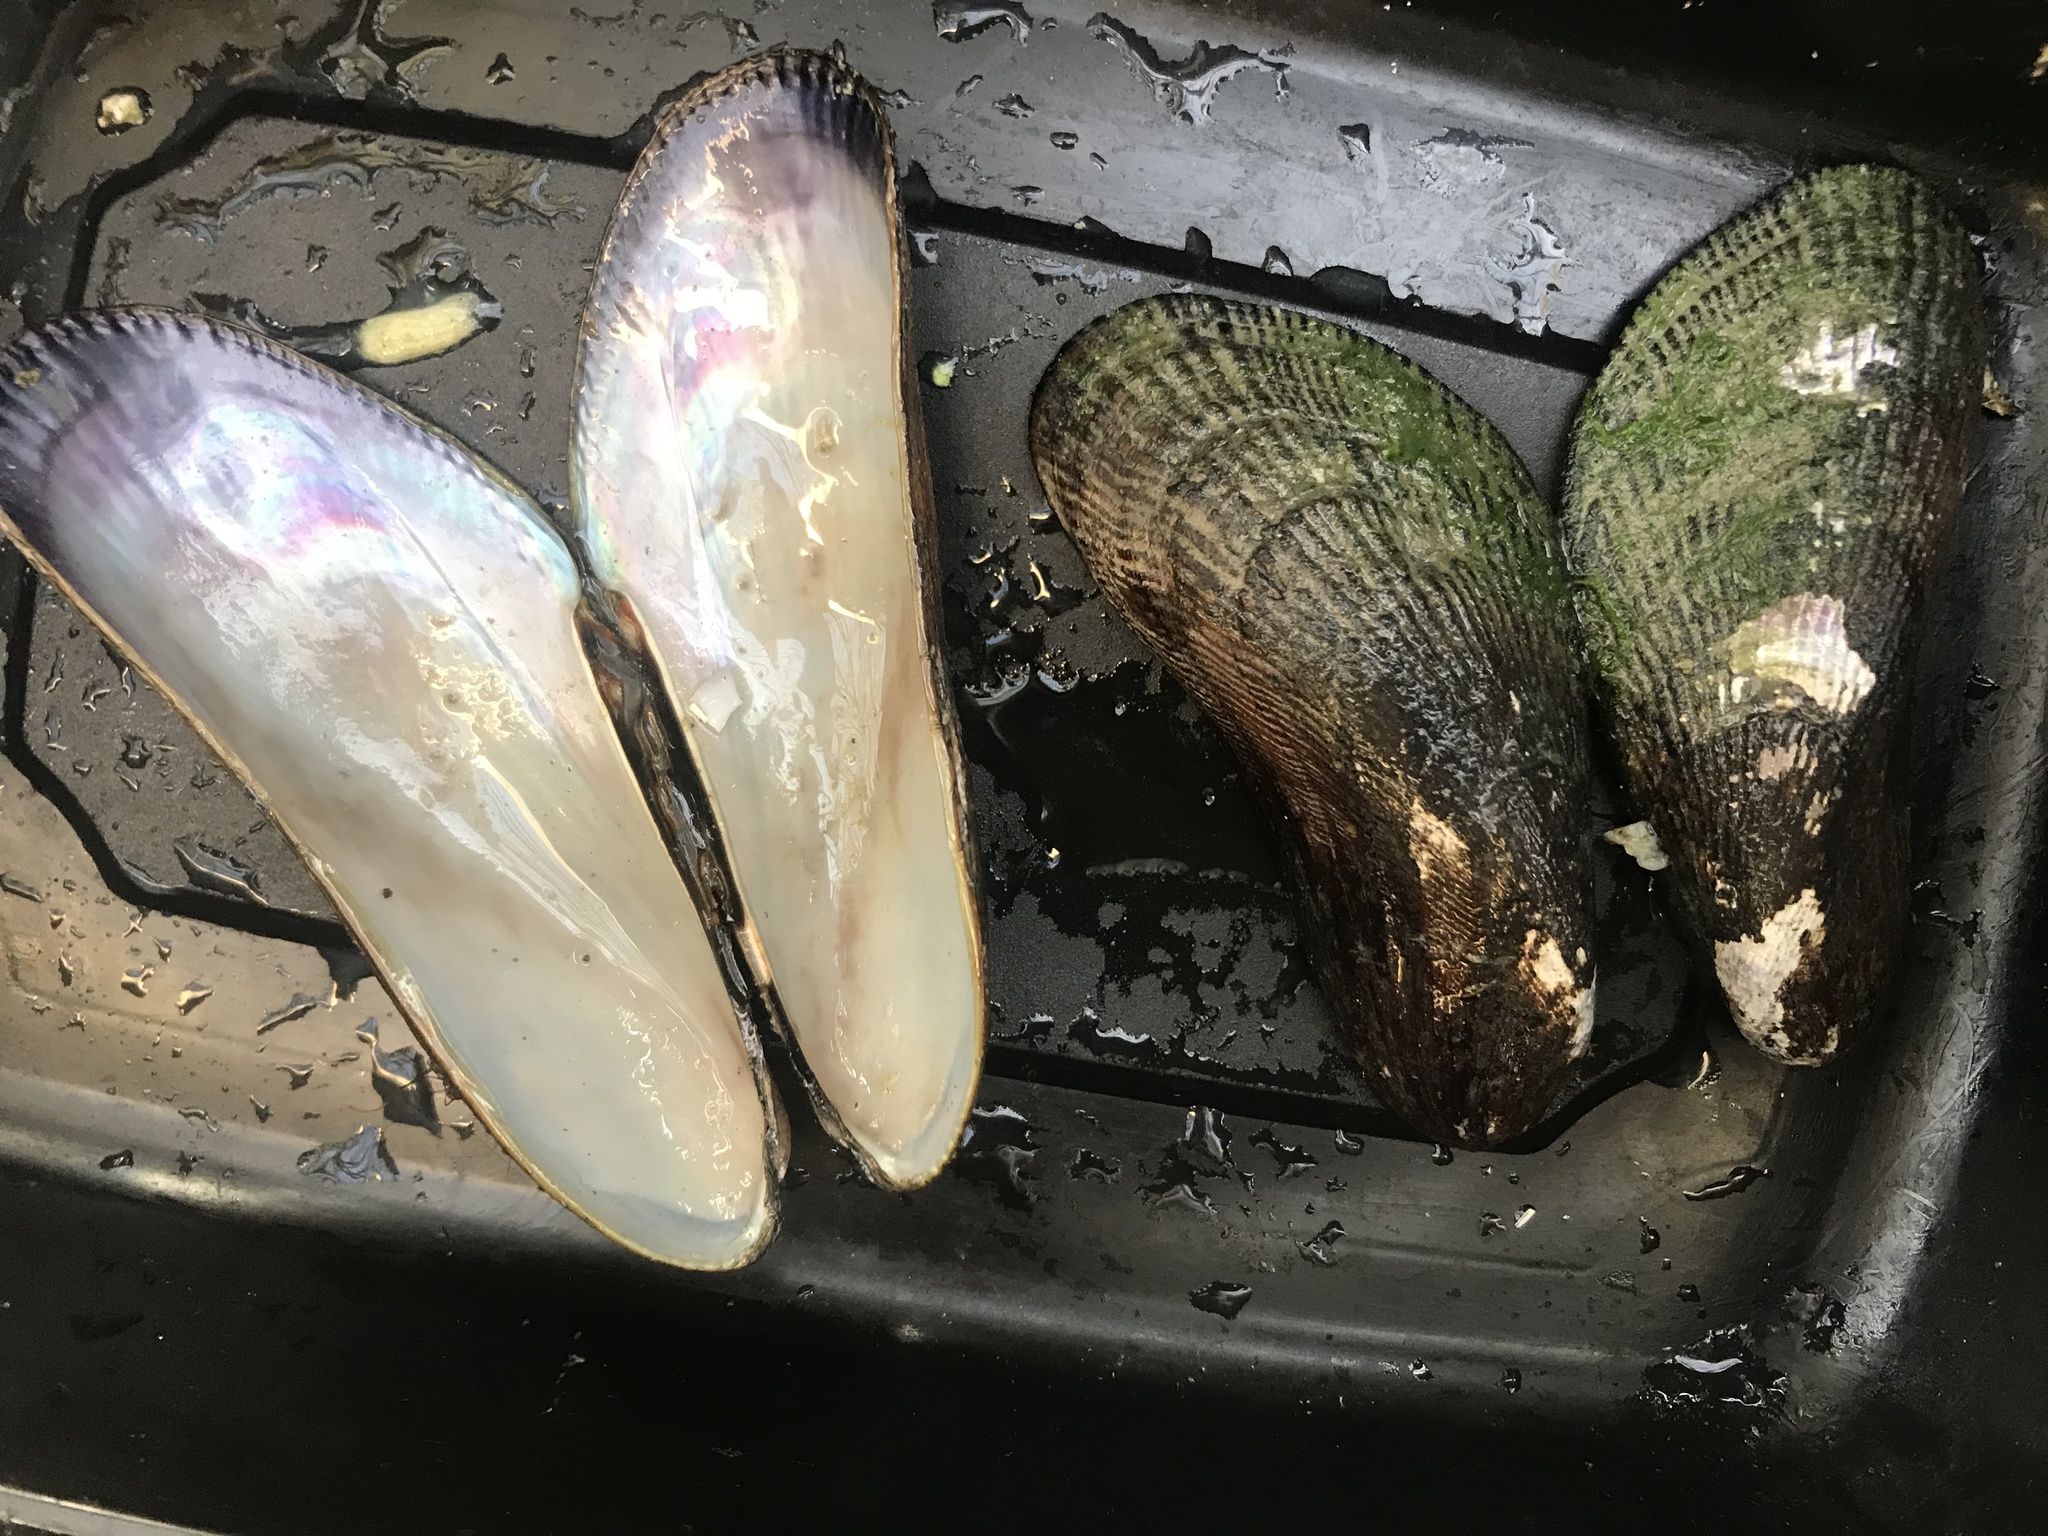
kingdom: Animalia
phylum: Mollusca
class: Bivalvia
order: Mytilida
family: Mytilidae
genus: Geukensia
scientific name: Geukensia demissa
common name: Ribbed mussel
